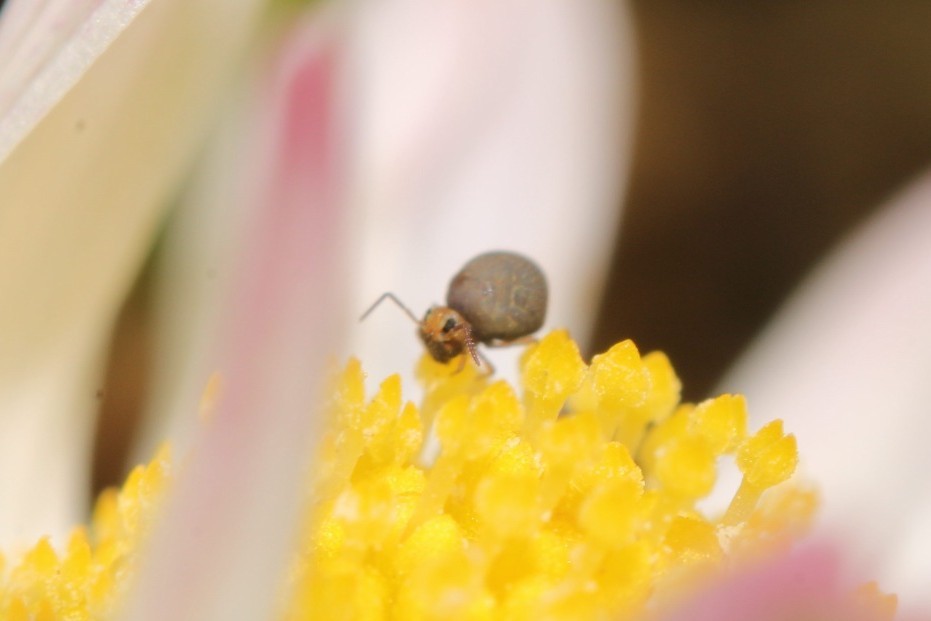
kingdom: Animalia
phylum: Arthropoda
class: Collembola
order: Symphypleona
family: Bourletiellidae
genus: Bourletiella
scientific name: Bourletiella hortensis
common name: Garden springtail
